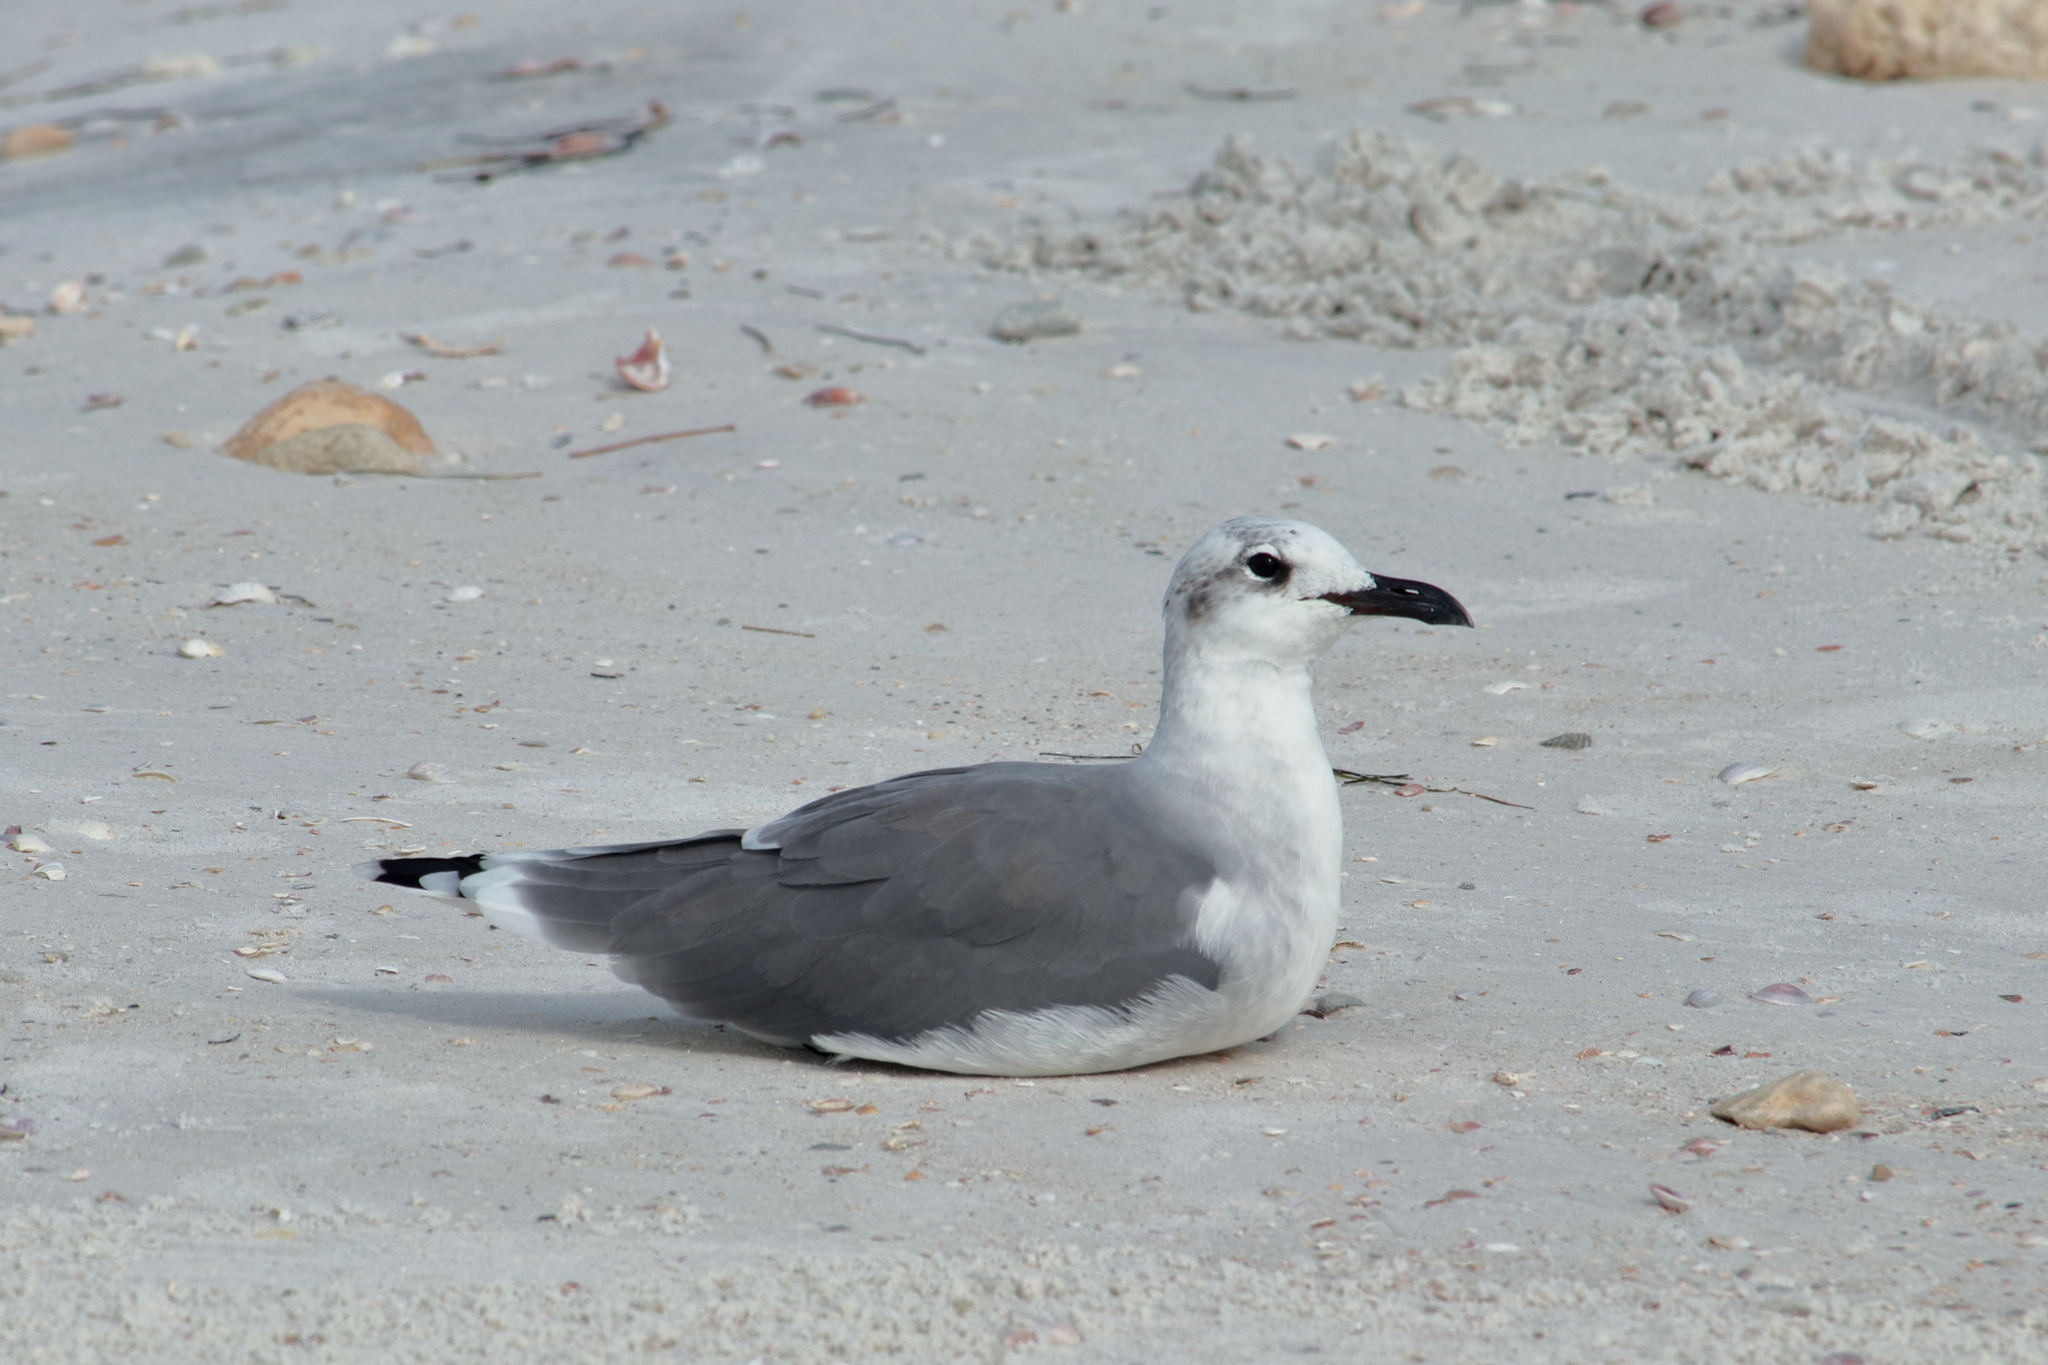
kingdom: Animalia
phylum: Chordata
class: Aves
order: Charadriiformes
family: Laridae
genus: Leucophaeus
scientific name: Leucophaeus atricilla
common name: Laughing gull
